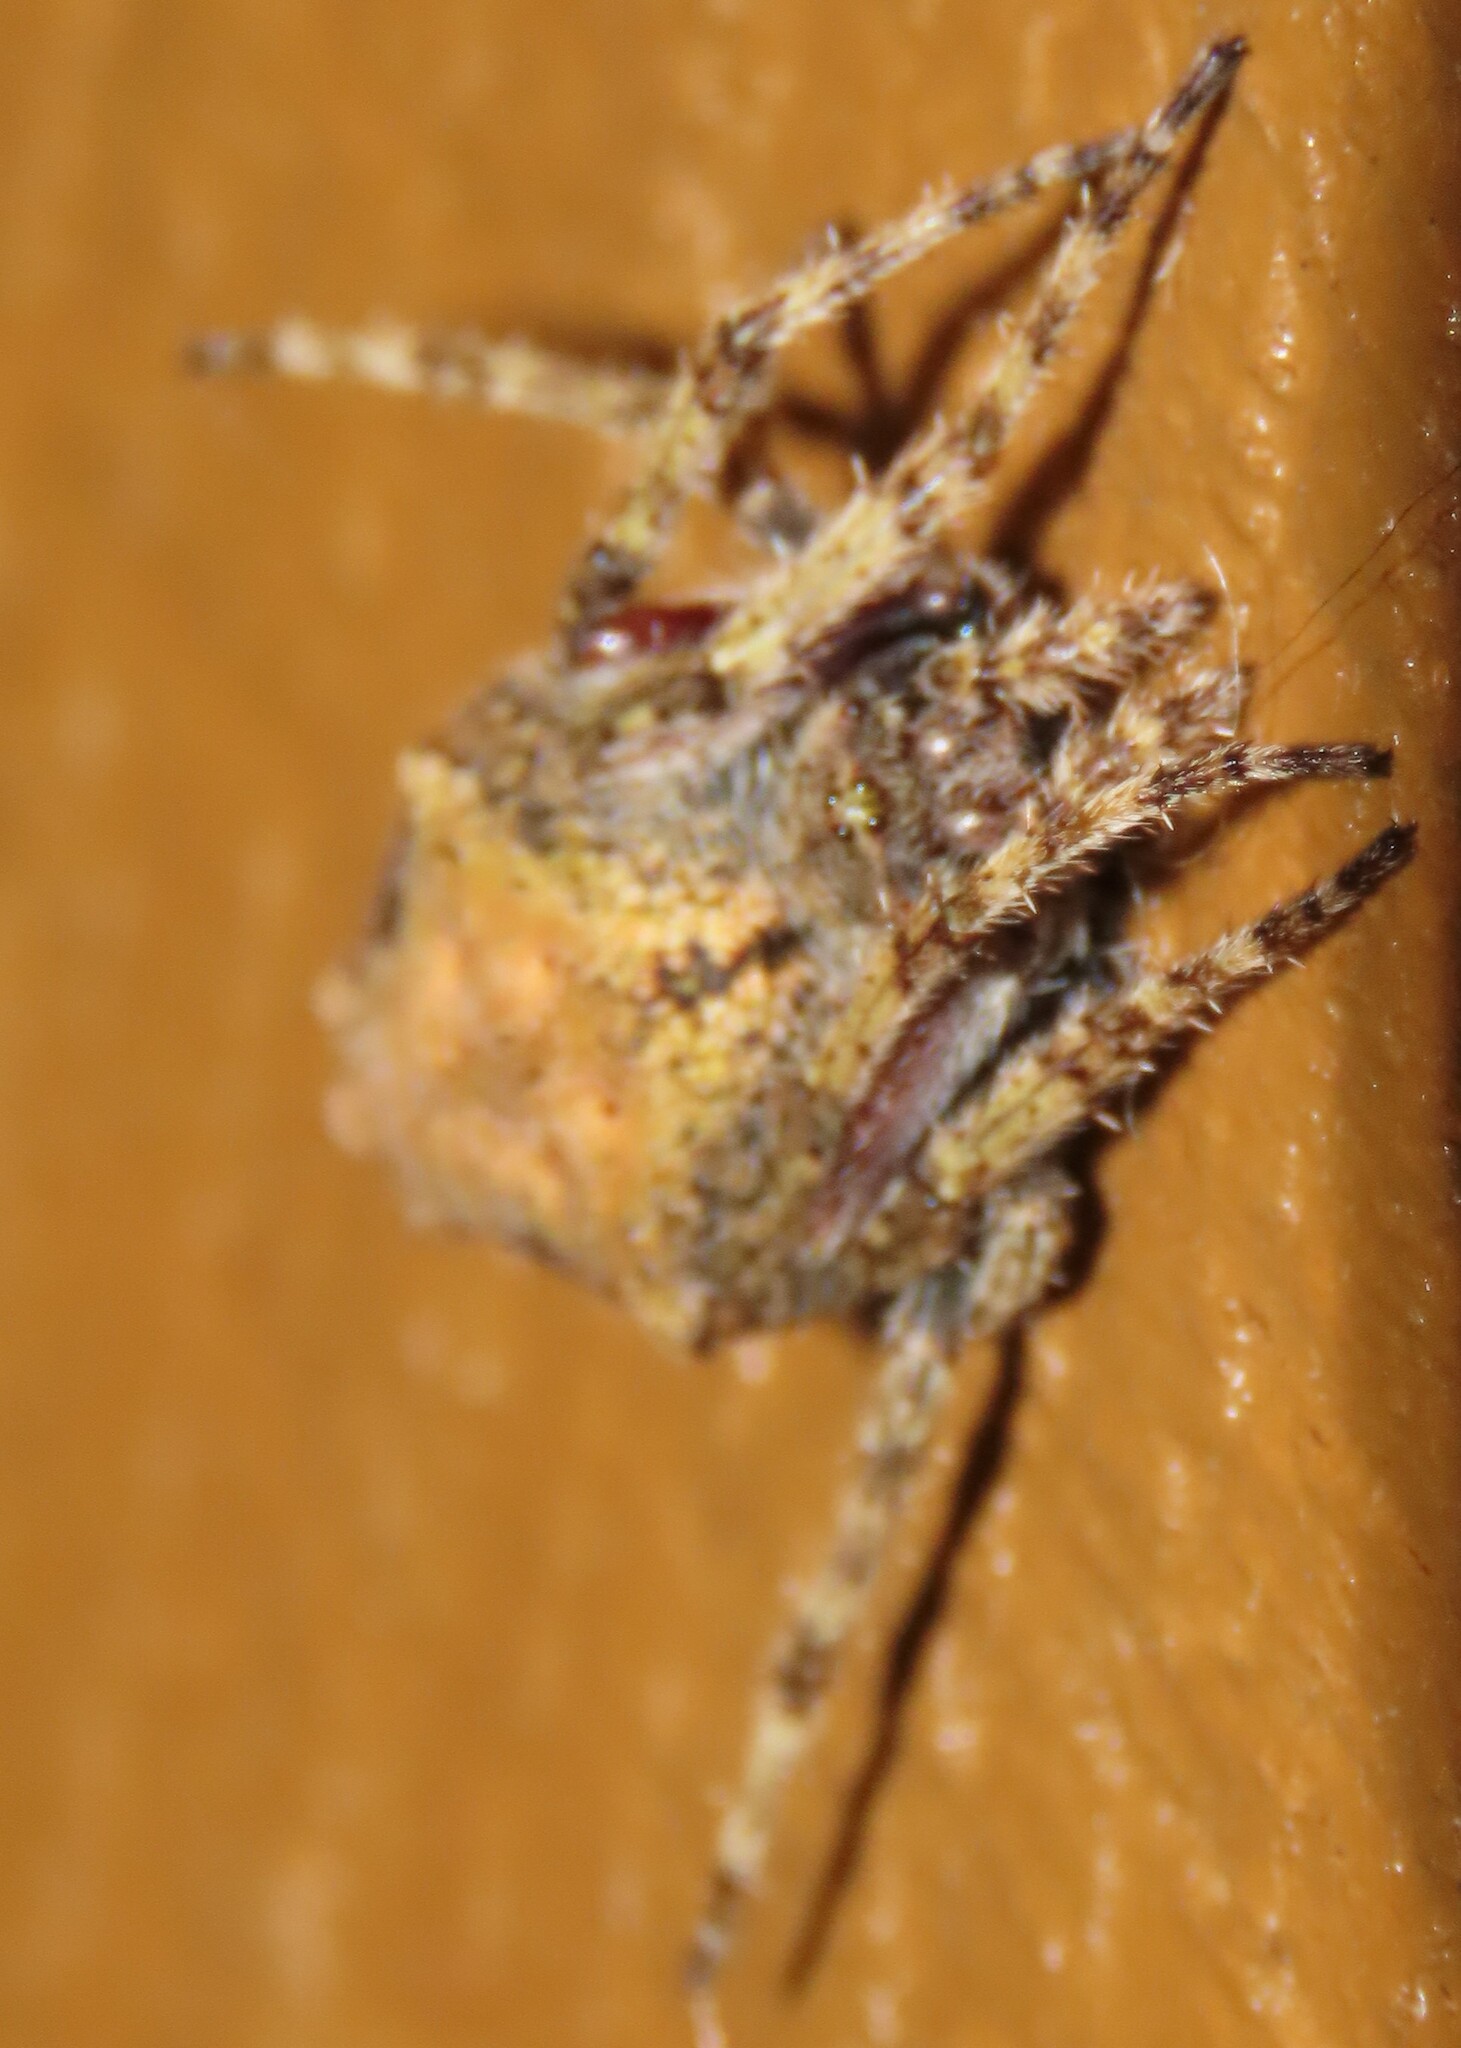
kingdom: Animalia
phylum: Arthropoda
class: Arachnida
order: Araneae
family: Araneidae
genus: Eriophora
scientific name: Eriophora pustulosa
